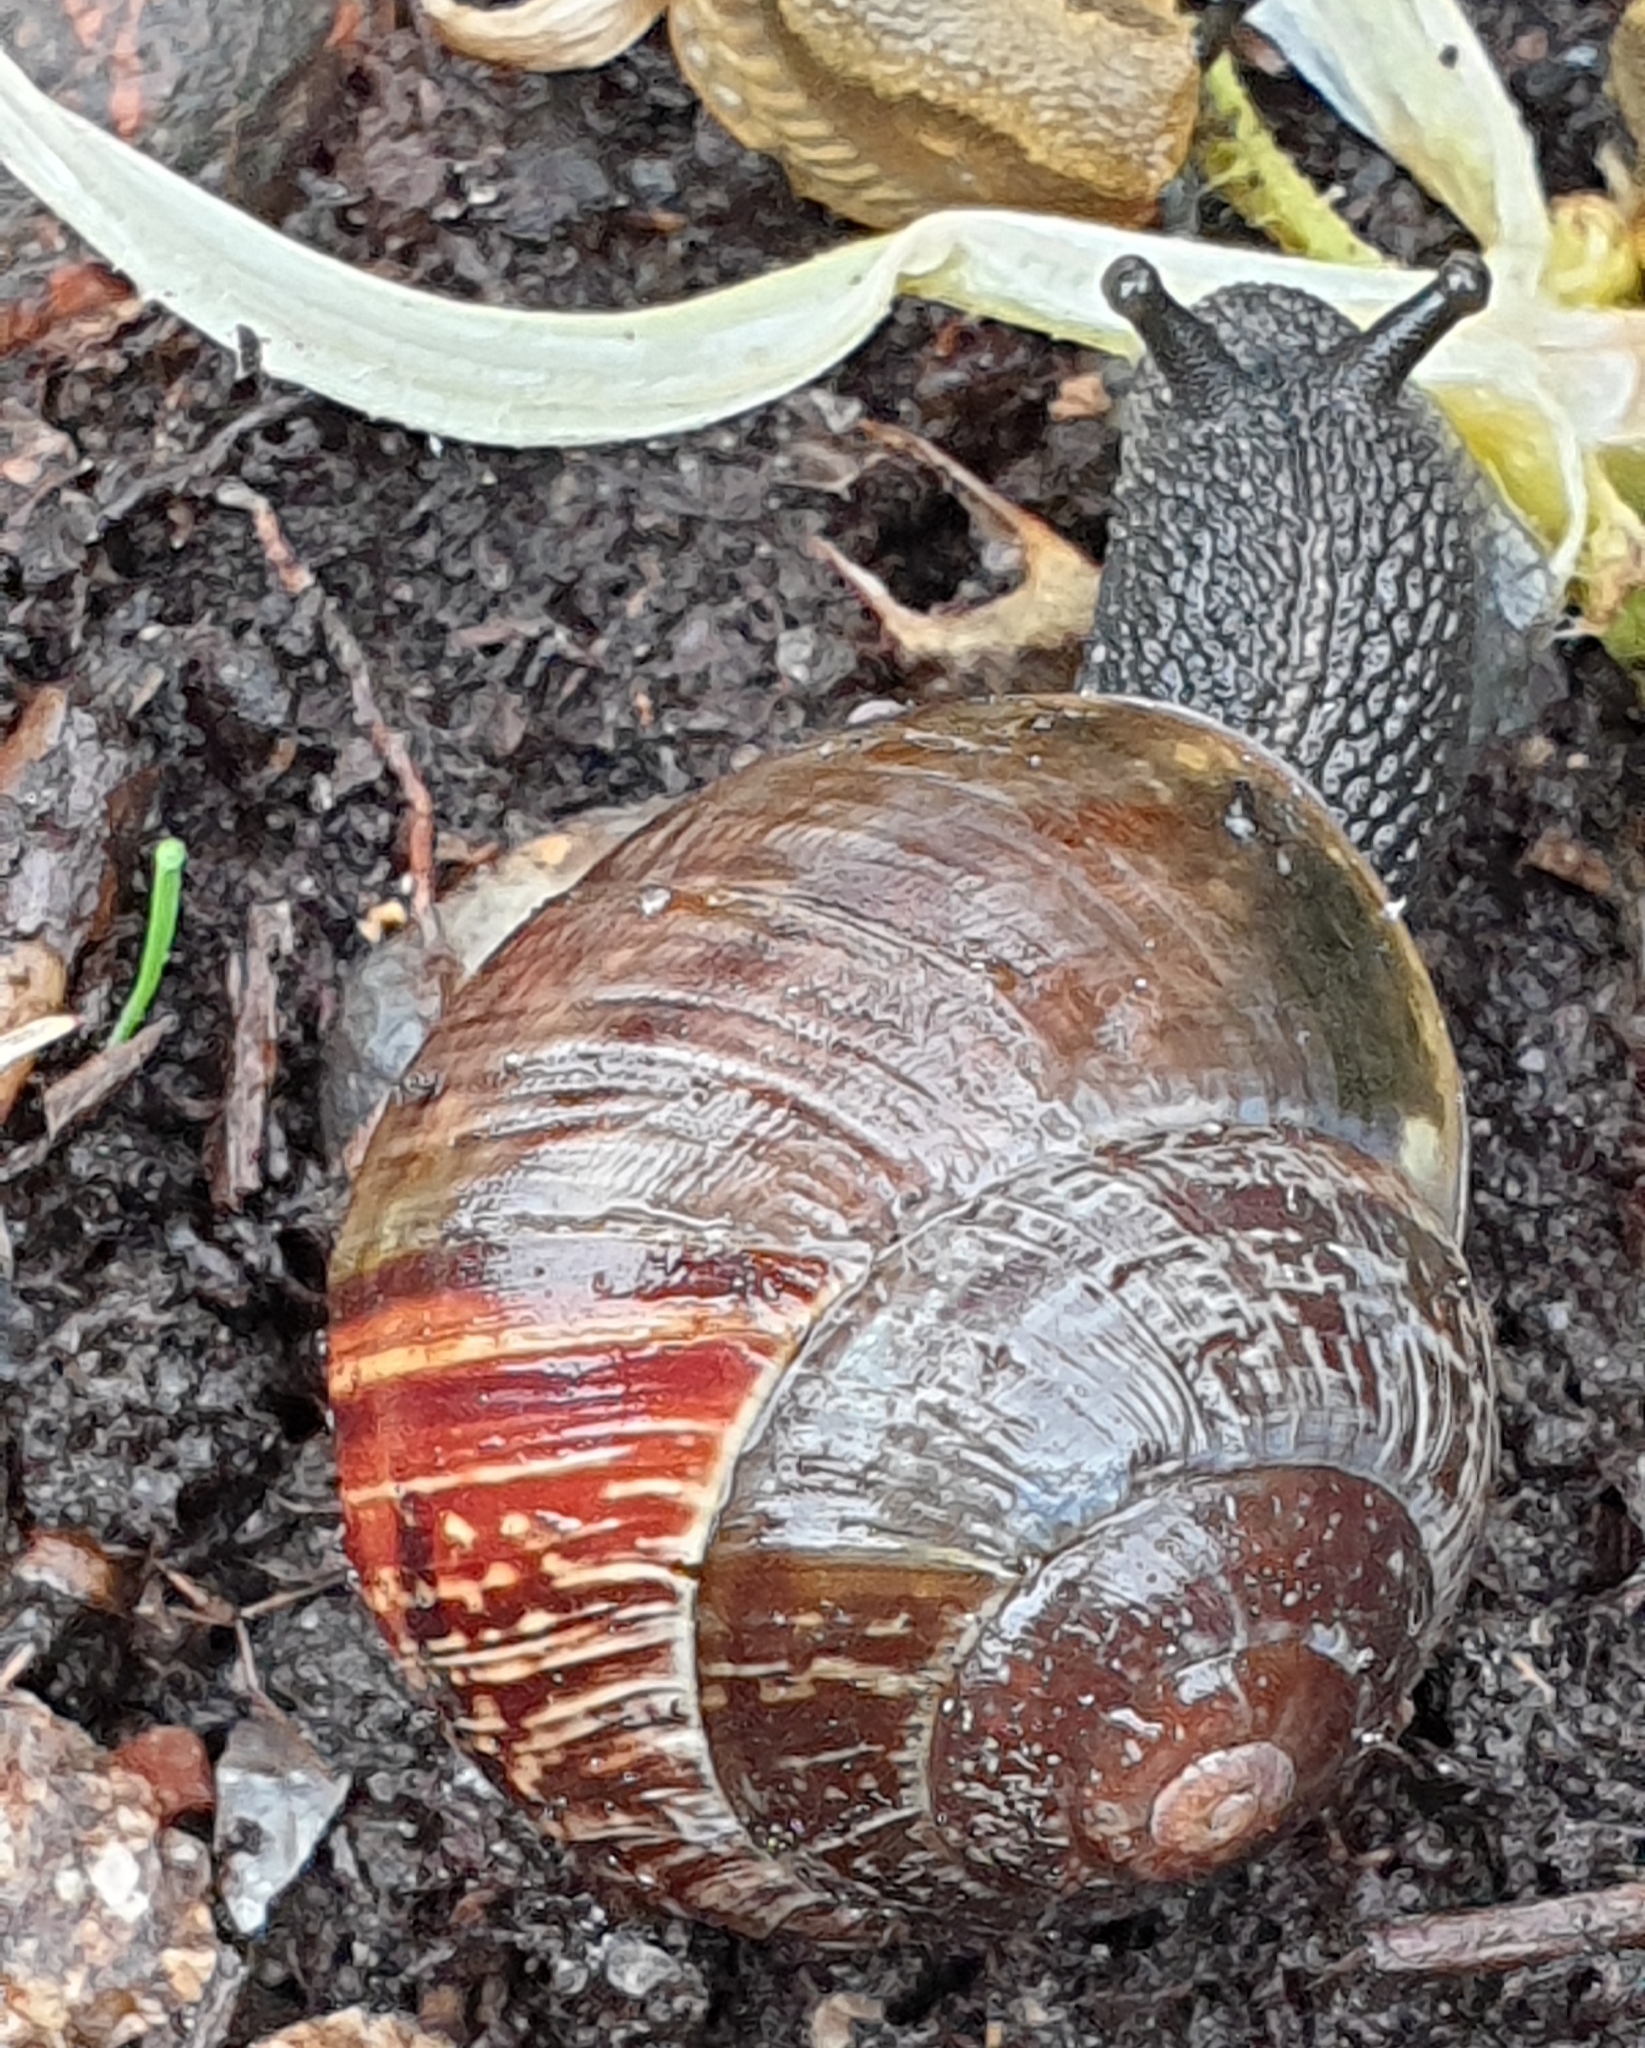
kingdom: Animalia
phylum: Mollusca
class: Gastropoda
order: Stylommatophora
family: Helicidae
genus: Arianta
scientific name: Arianta arbustorum
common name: Copse snail
